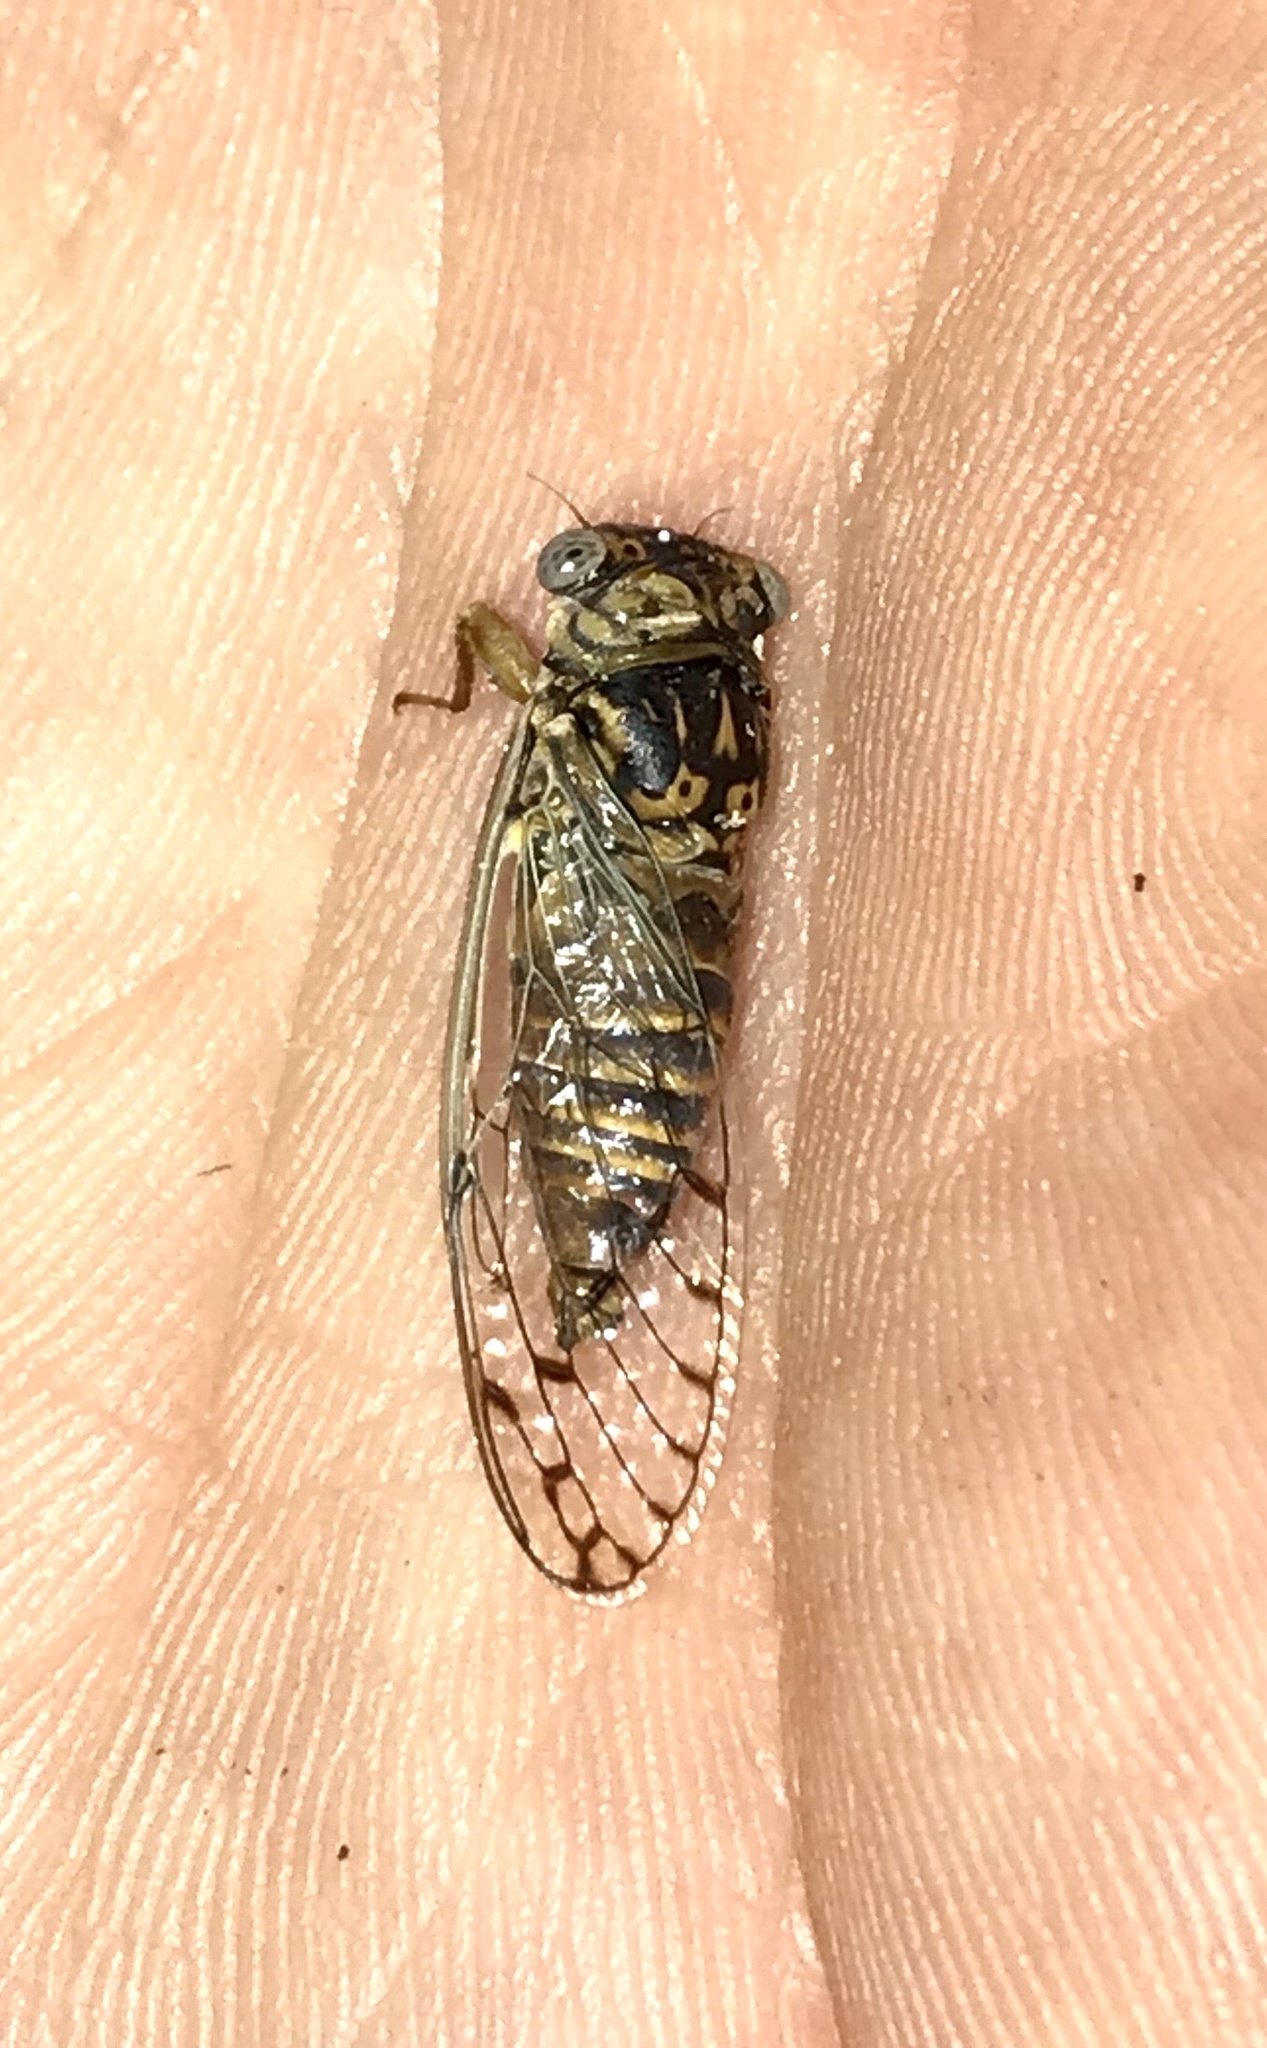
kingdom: Animalia
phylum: Arthropoda
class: Insecta
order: Hemiptera
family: Cicadidae
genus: Pacarina
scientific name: Pacarina puella
